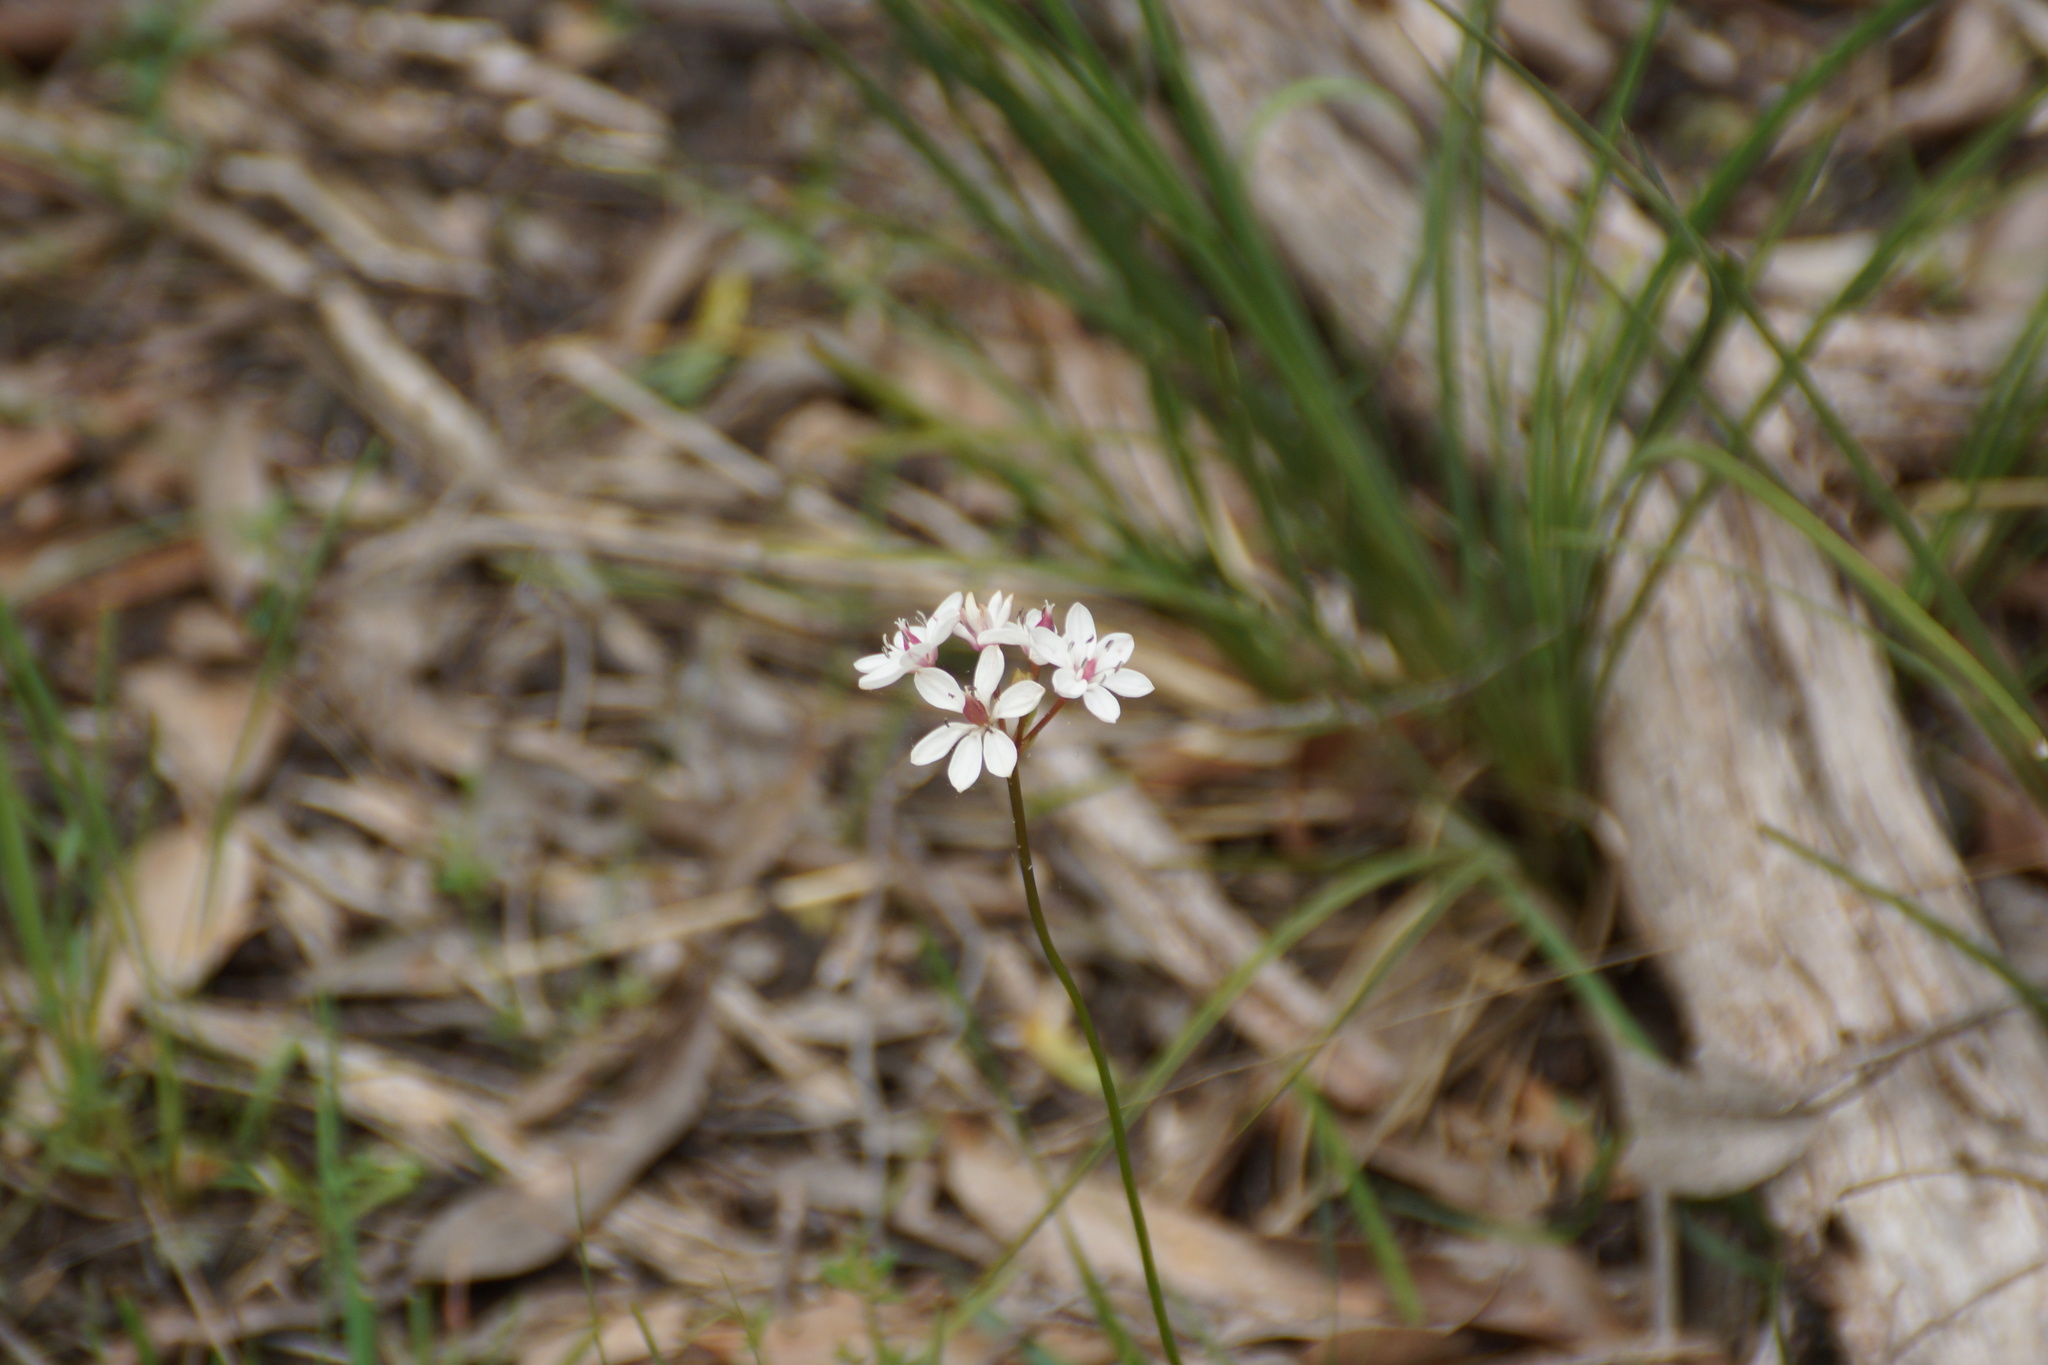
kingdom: Plantae
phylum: Tracheophyta
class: Liliopsida
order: Liliales
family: Colchicaceae
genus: Burchardia
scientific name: Burchardia umbellata
